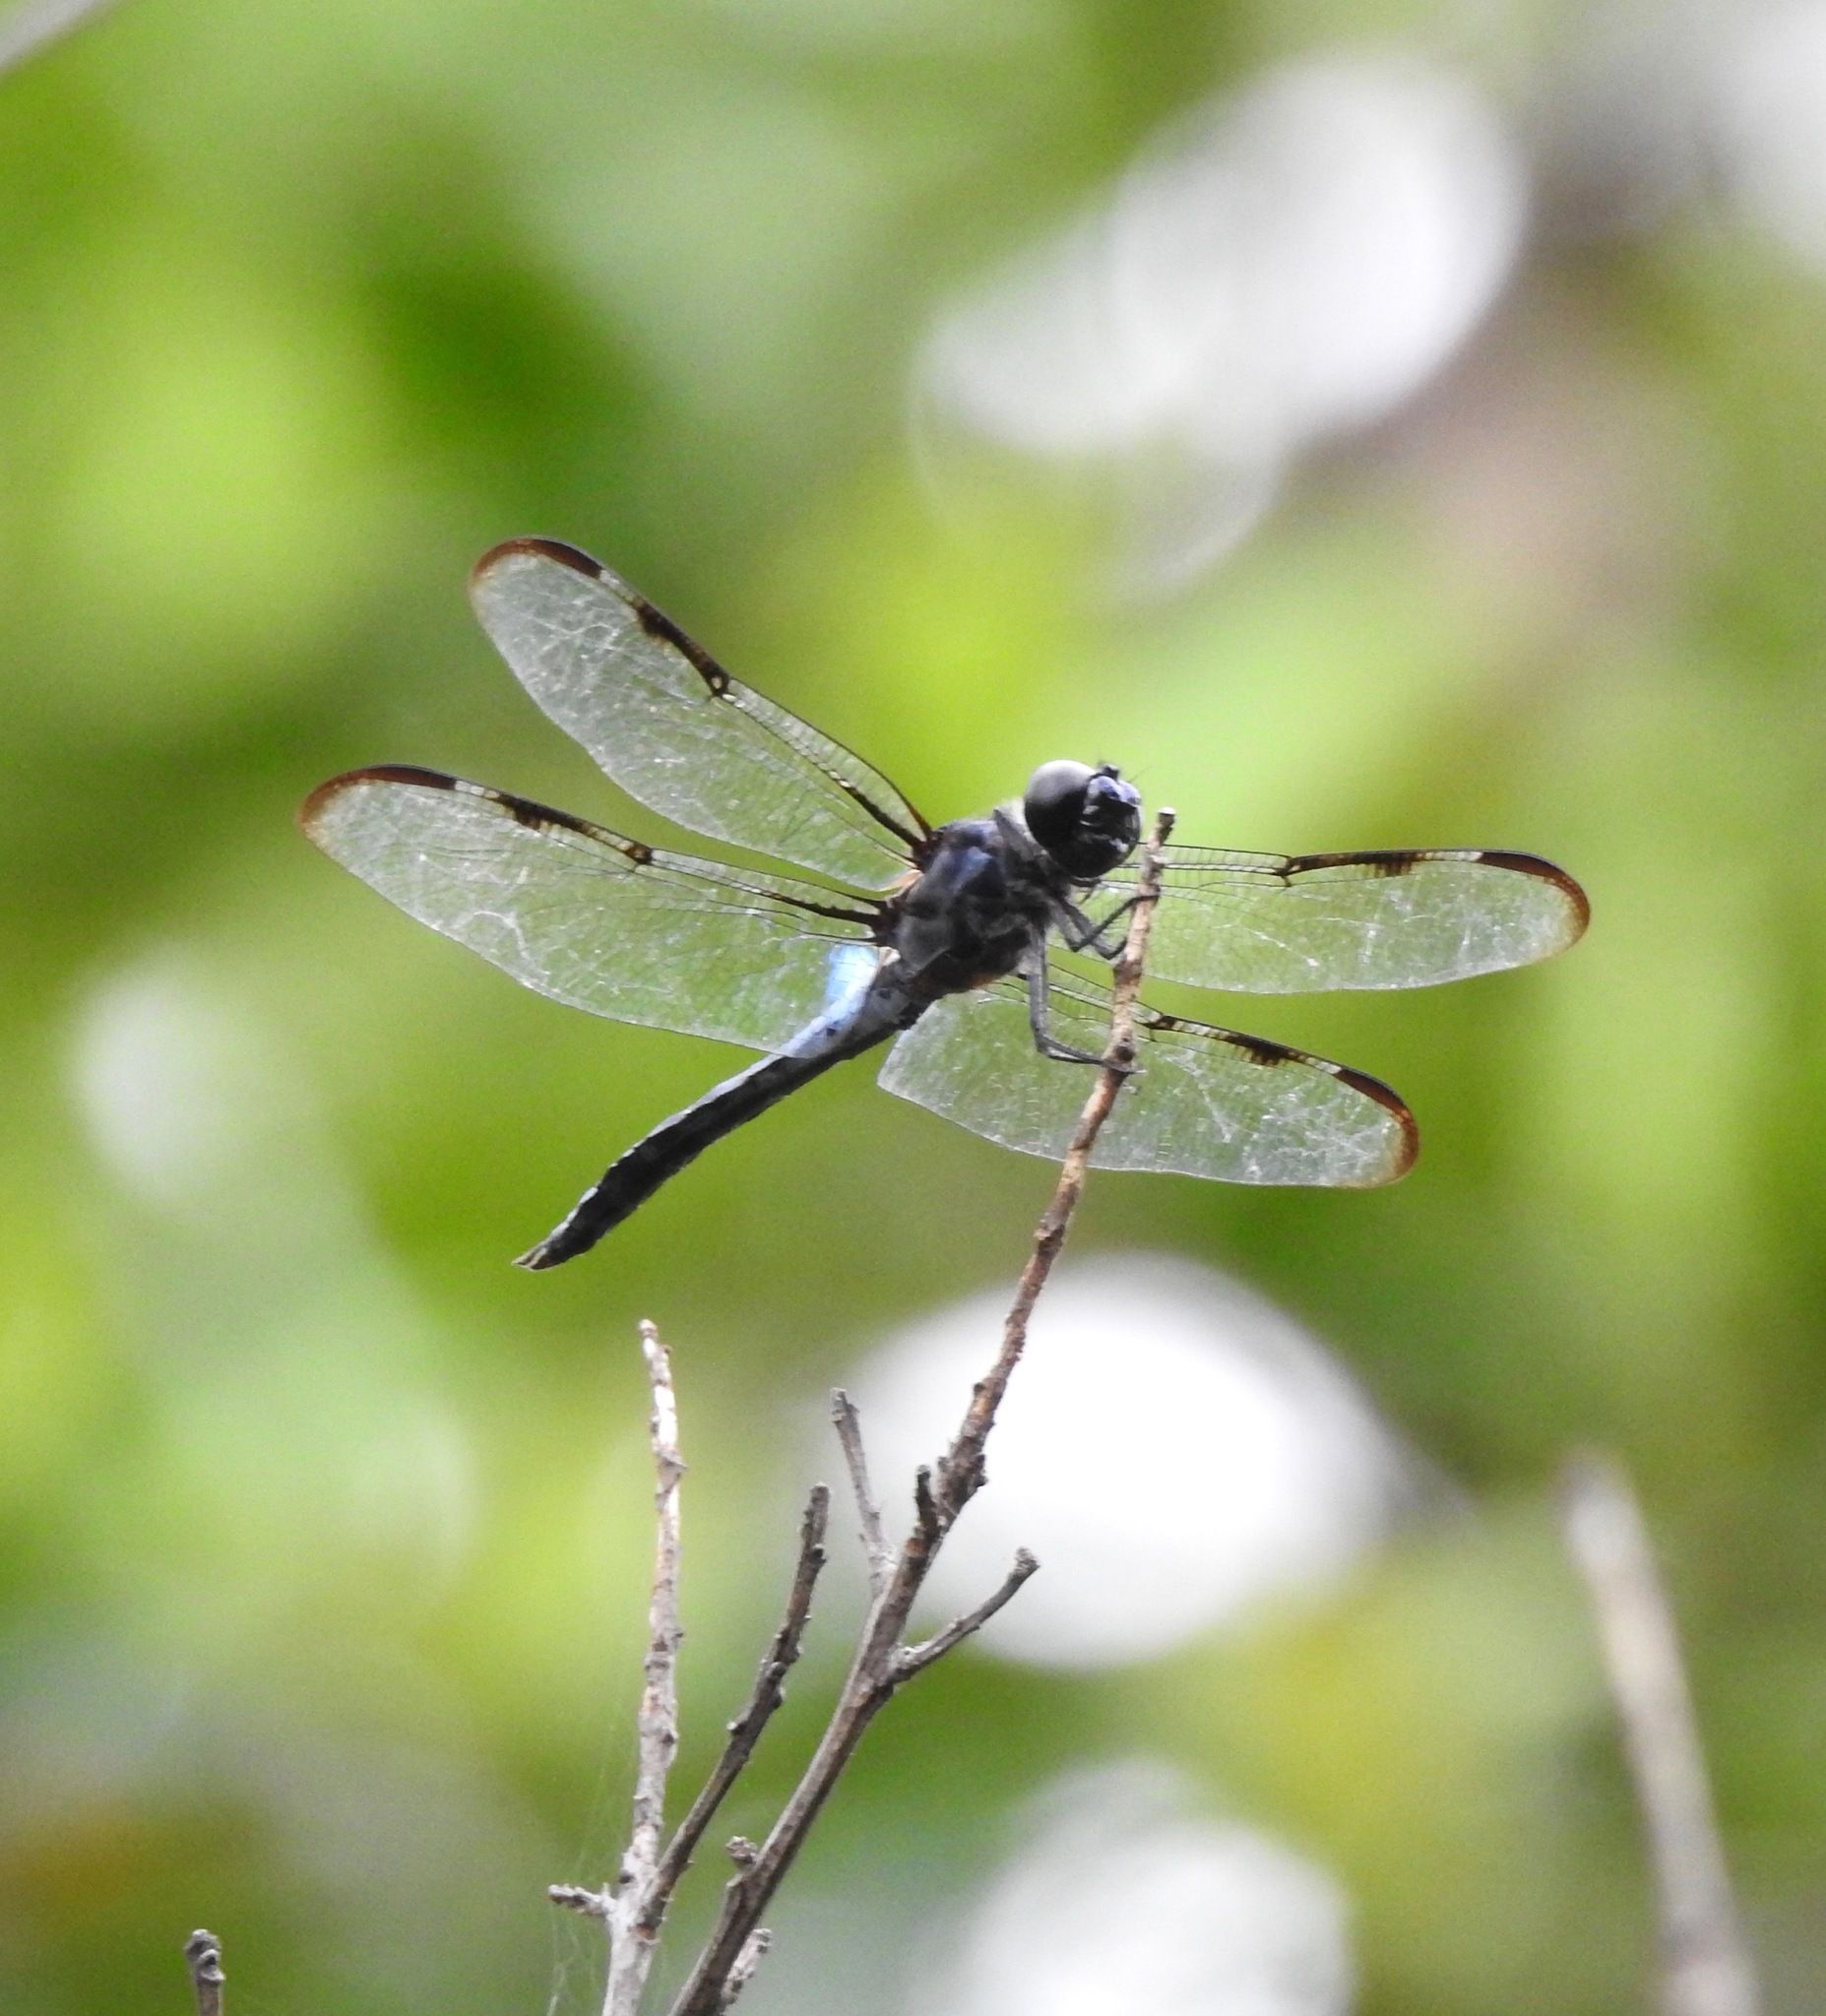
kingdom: Animalia
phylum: Arthropoda
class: Insecta
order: Odonata
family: Libellulidae
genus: Libellula
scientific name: Libellula axilena
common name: Bar-winged skimmer
